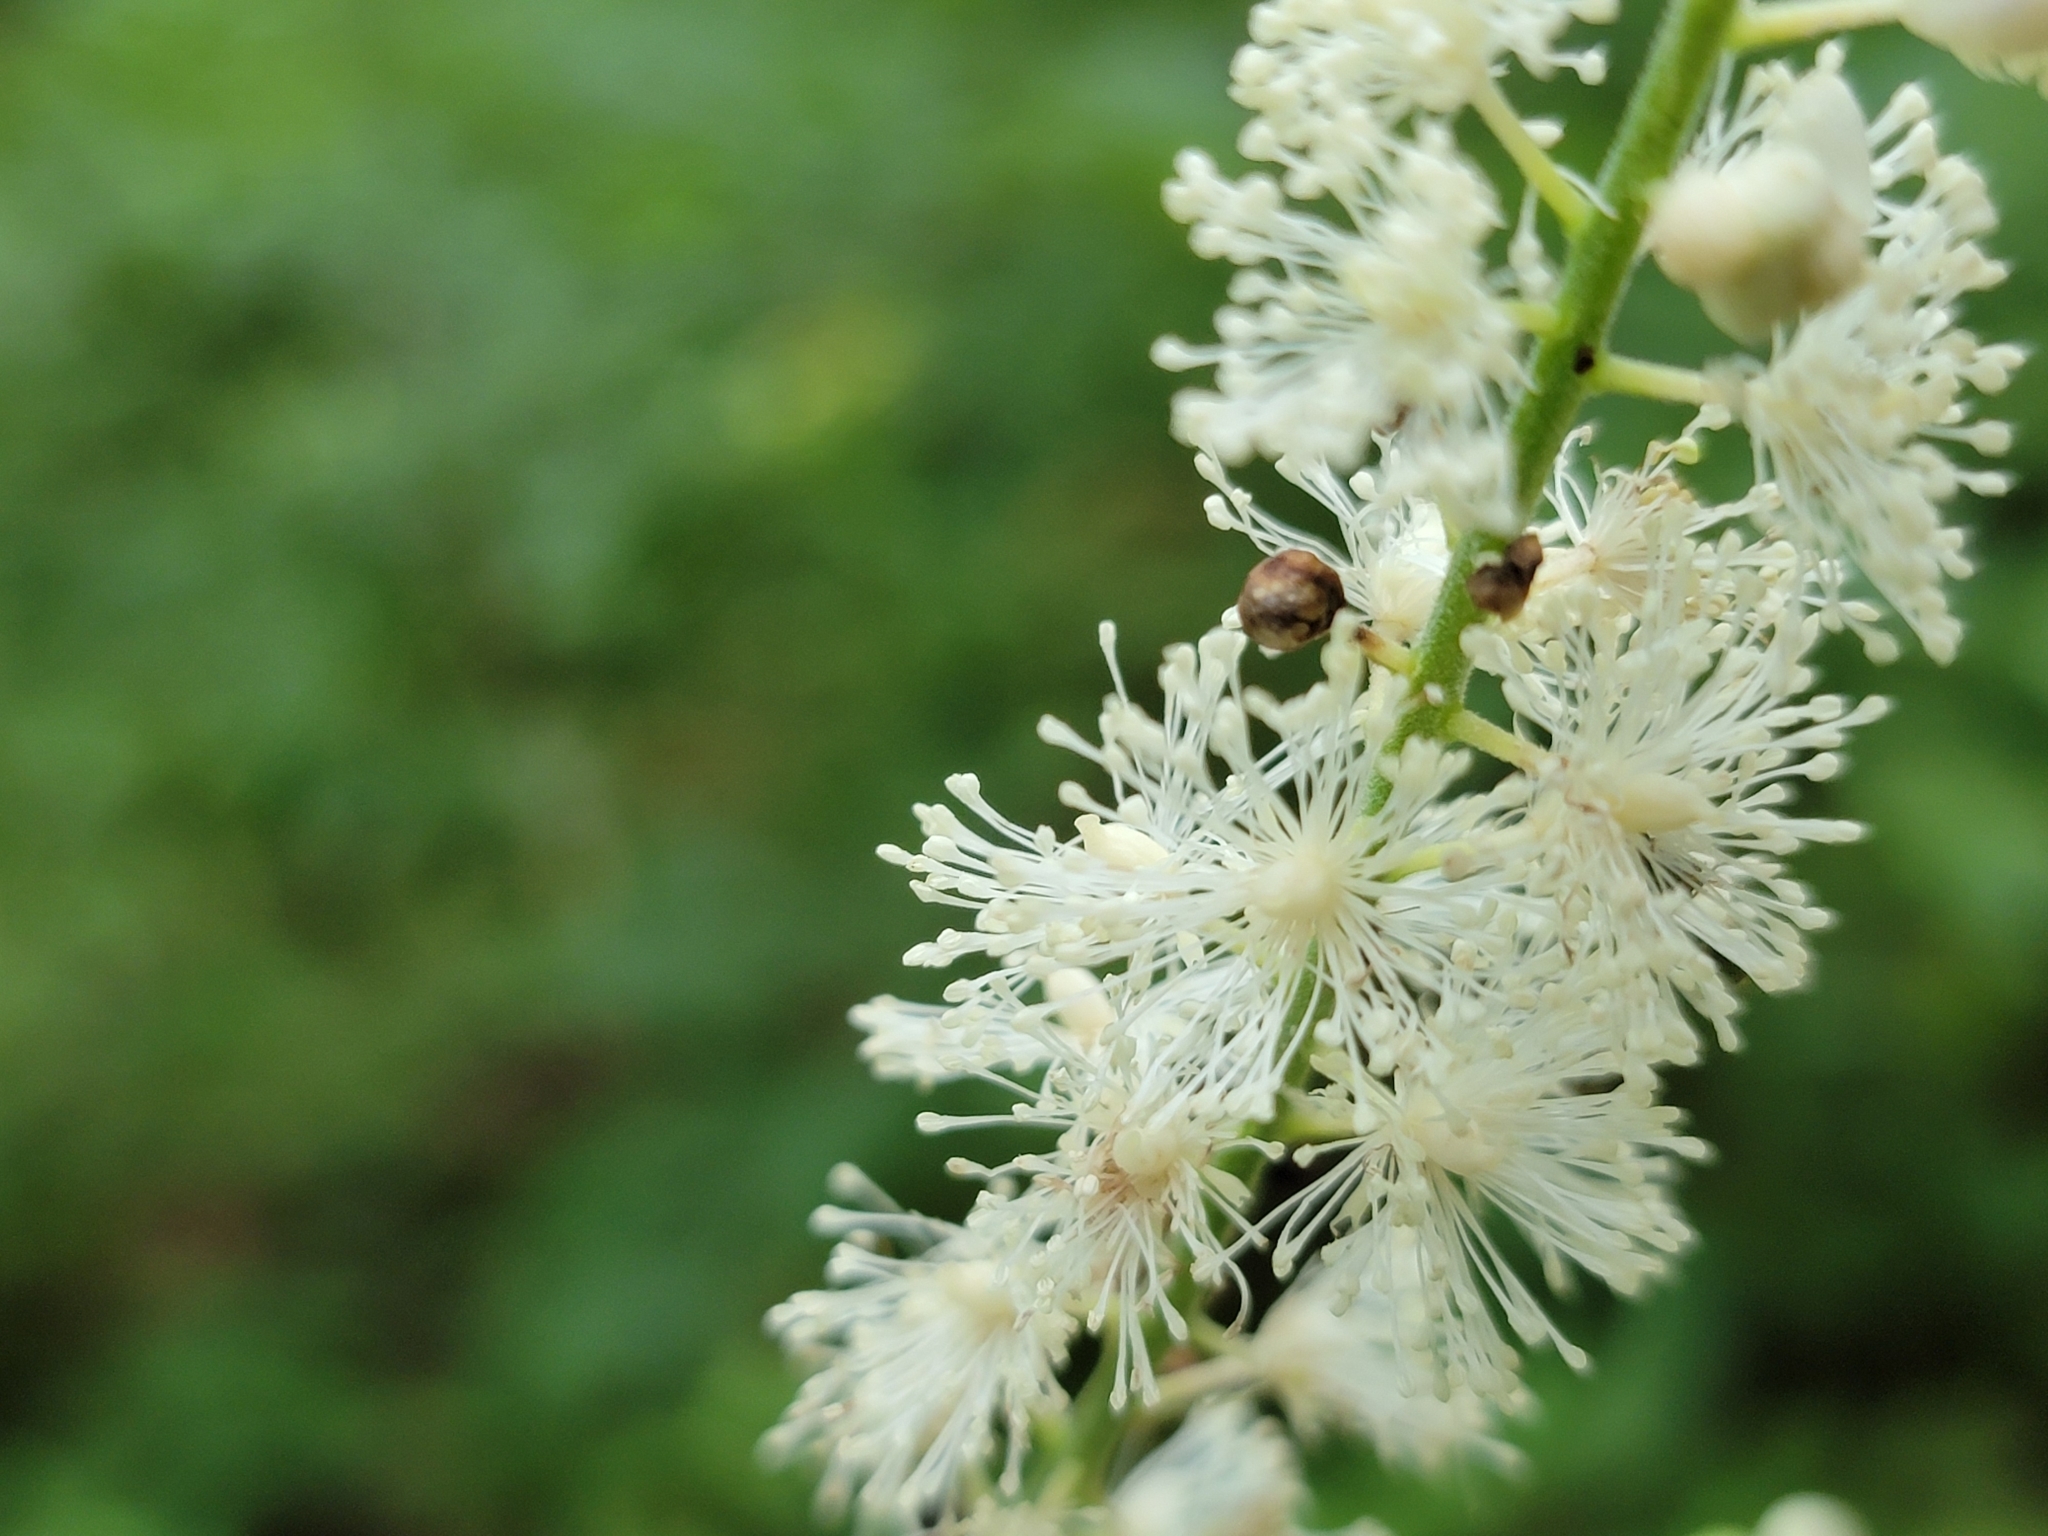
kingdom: Plantae
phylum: Tracheophyta
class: Magnoliopsida
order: Ranunculales
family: Ranunculaceae
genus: Actaea
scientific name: Actaea racemosa
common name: Black cohosh
